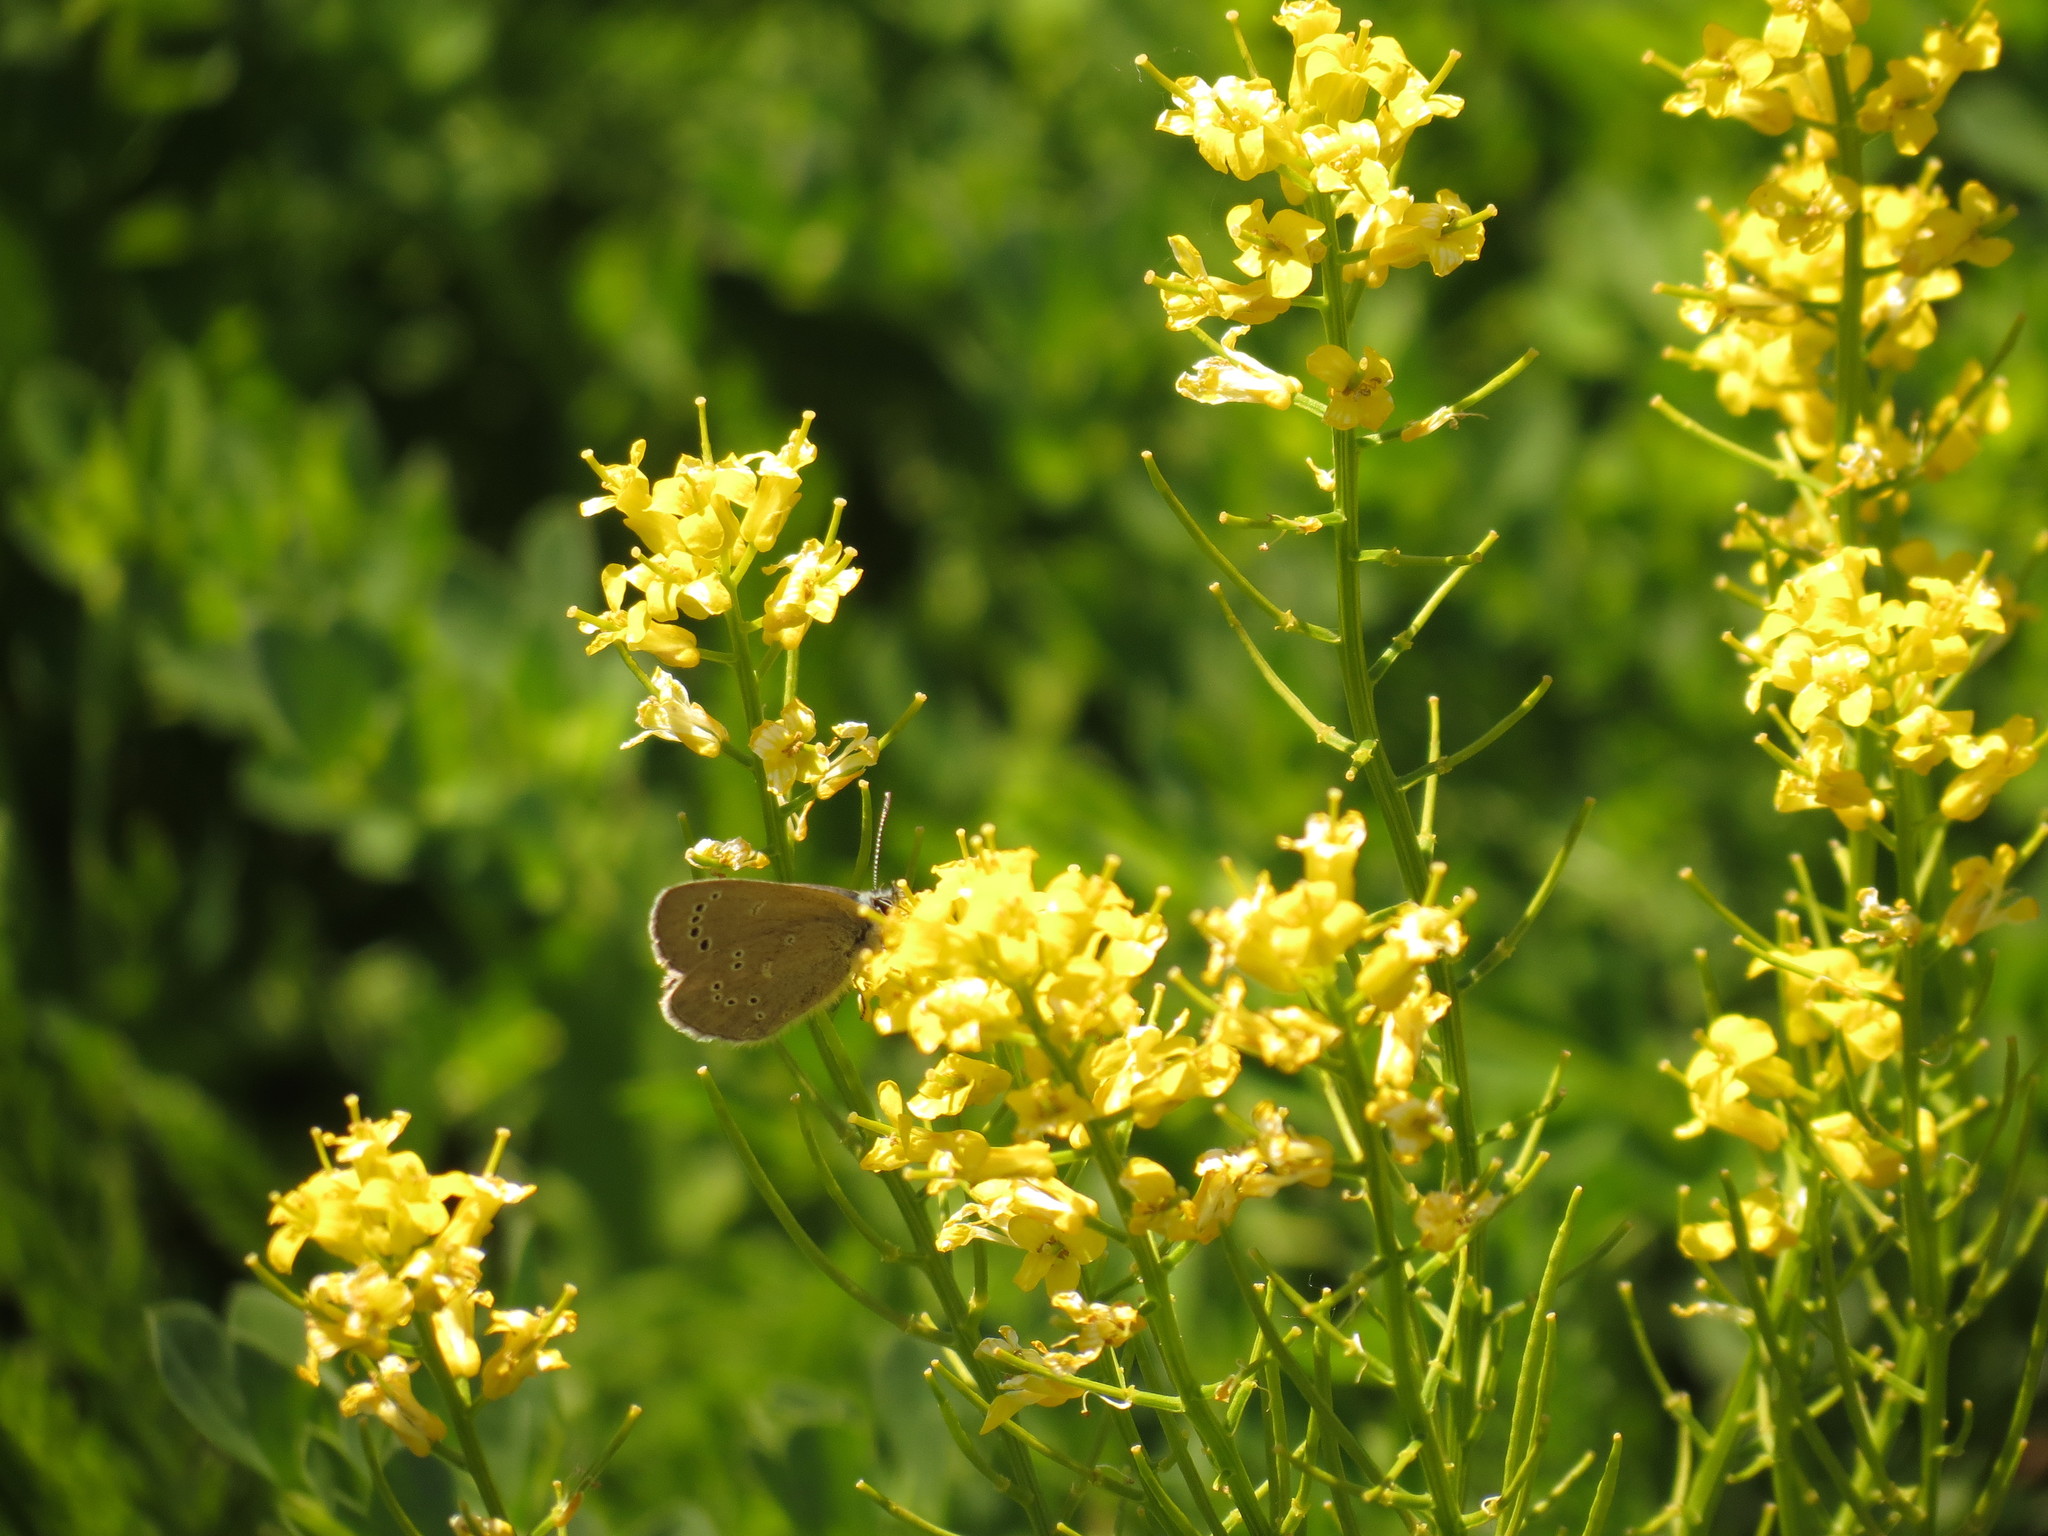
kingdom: Animalia
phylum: Arthropoda
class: Insecta
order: Lepidoptera
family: Lycaenidae
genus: Glaucopsyche
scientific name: Glaucopsyche lygdamus
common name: Silvery blue
